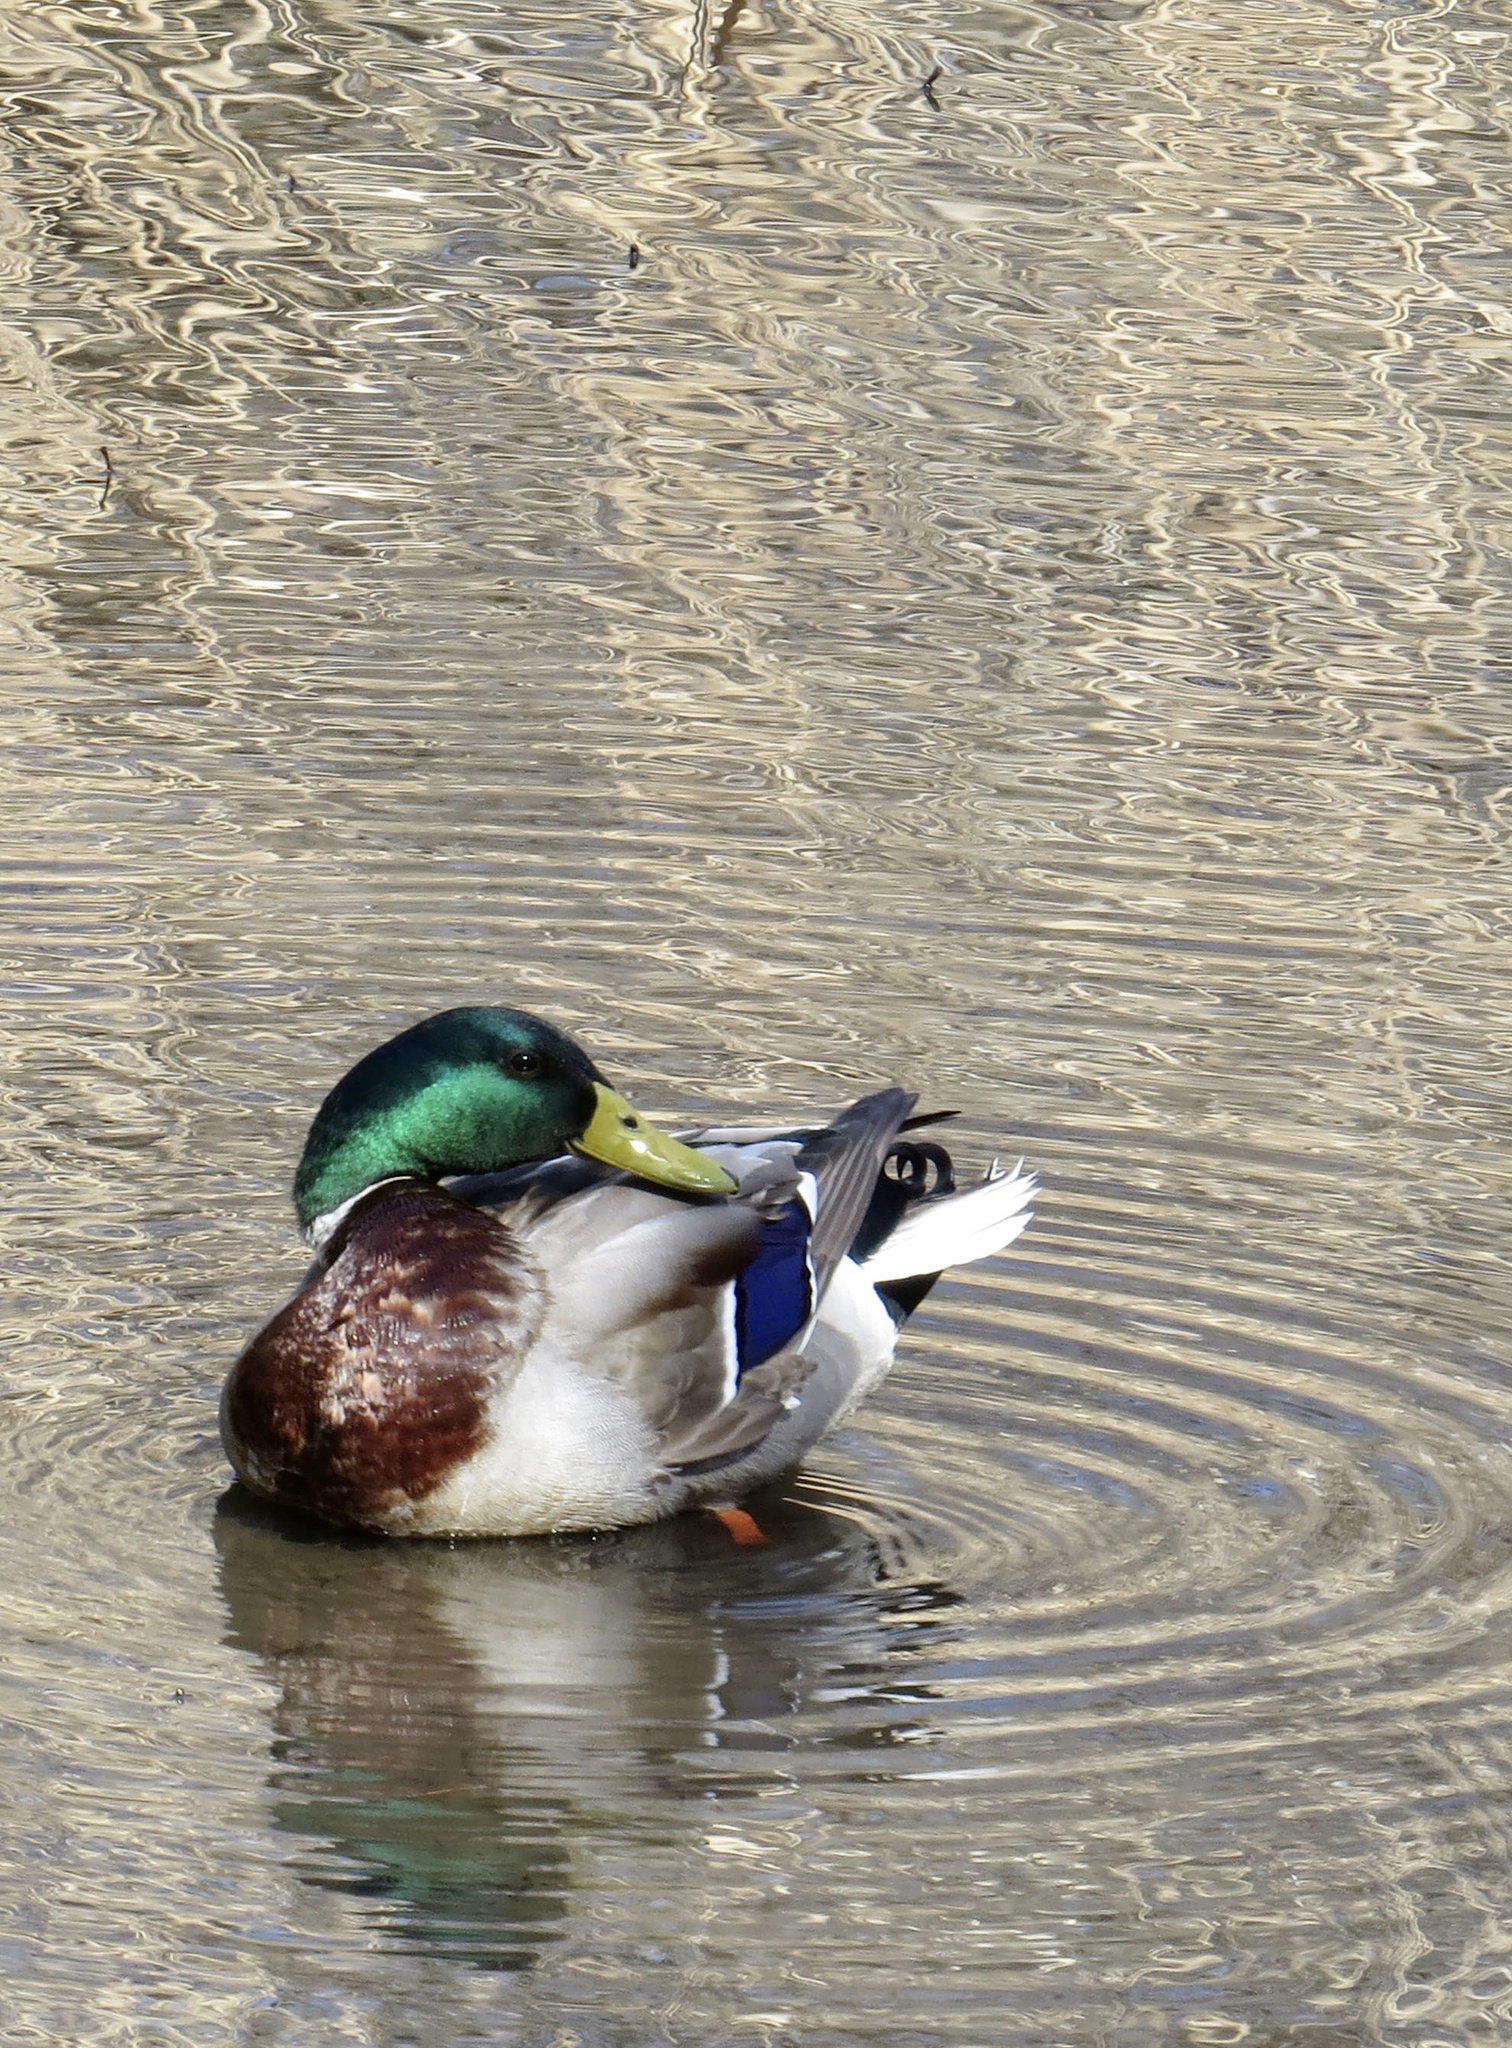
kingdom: Animalia
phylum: Chordata
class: Aves
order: Anseriformes
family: Anatidae
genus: Anas
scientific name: Anas platyrhynchos
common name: Mallard
